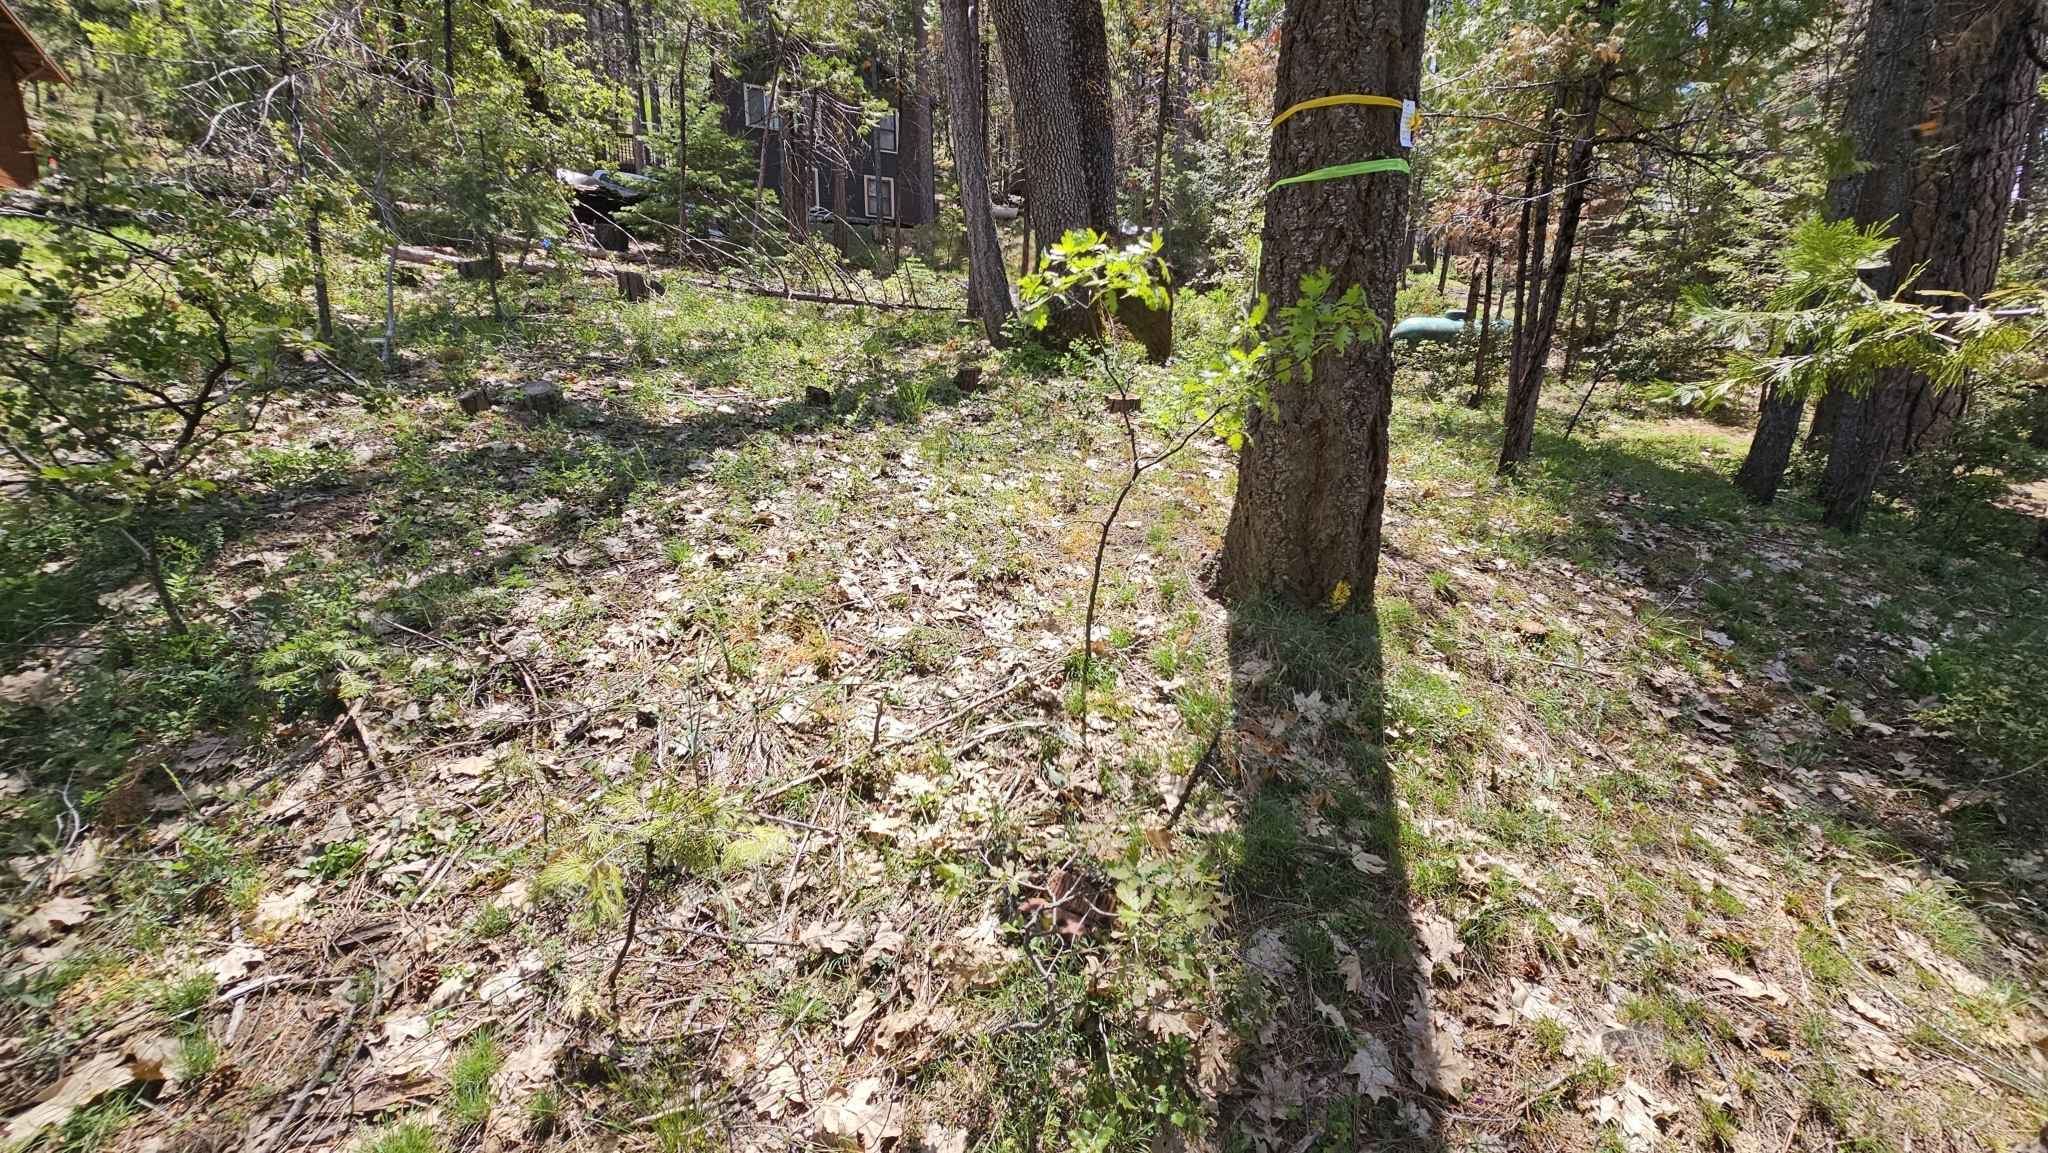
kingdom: Plantae
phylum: Tracheophyta
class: Liliopsida
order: Liliales
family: Liliaceae
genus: Fritillaria
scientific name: Fritillaria micrantha
